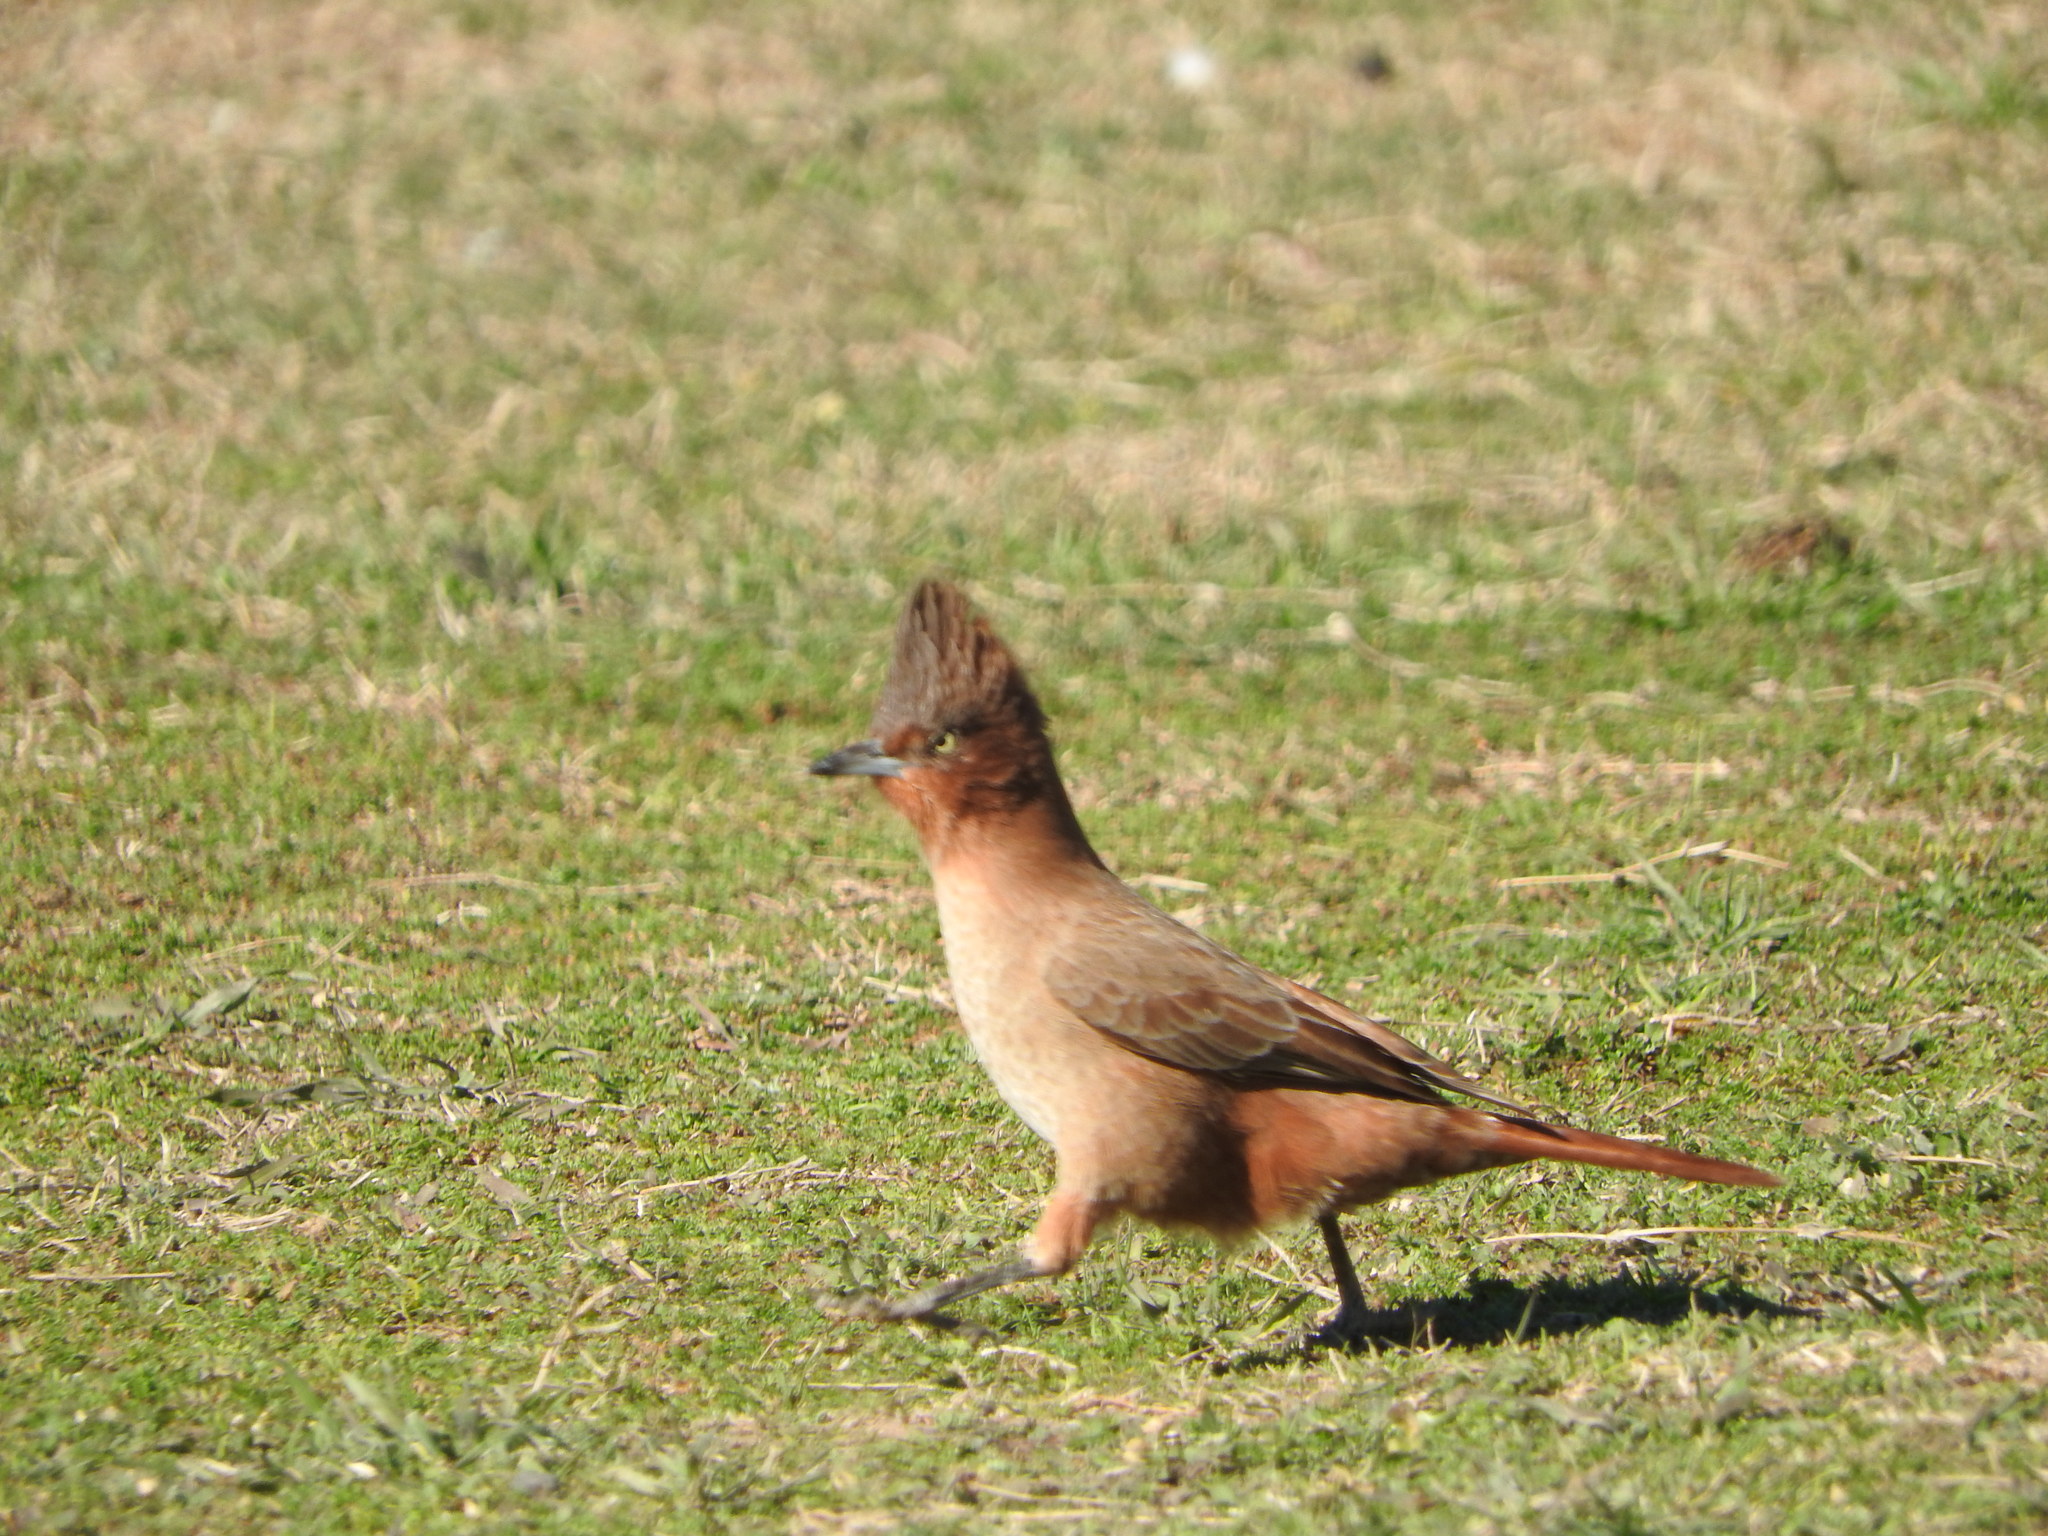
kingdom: Animalia
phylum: Chordata
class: Aves
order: Passeriformes
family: Furnariidae
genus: Pseudoseisura
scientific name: Pseudoseisura lophotes
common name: Brown cacholote
